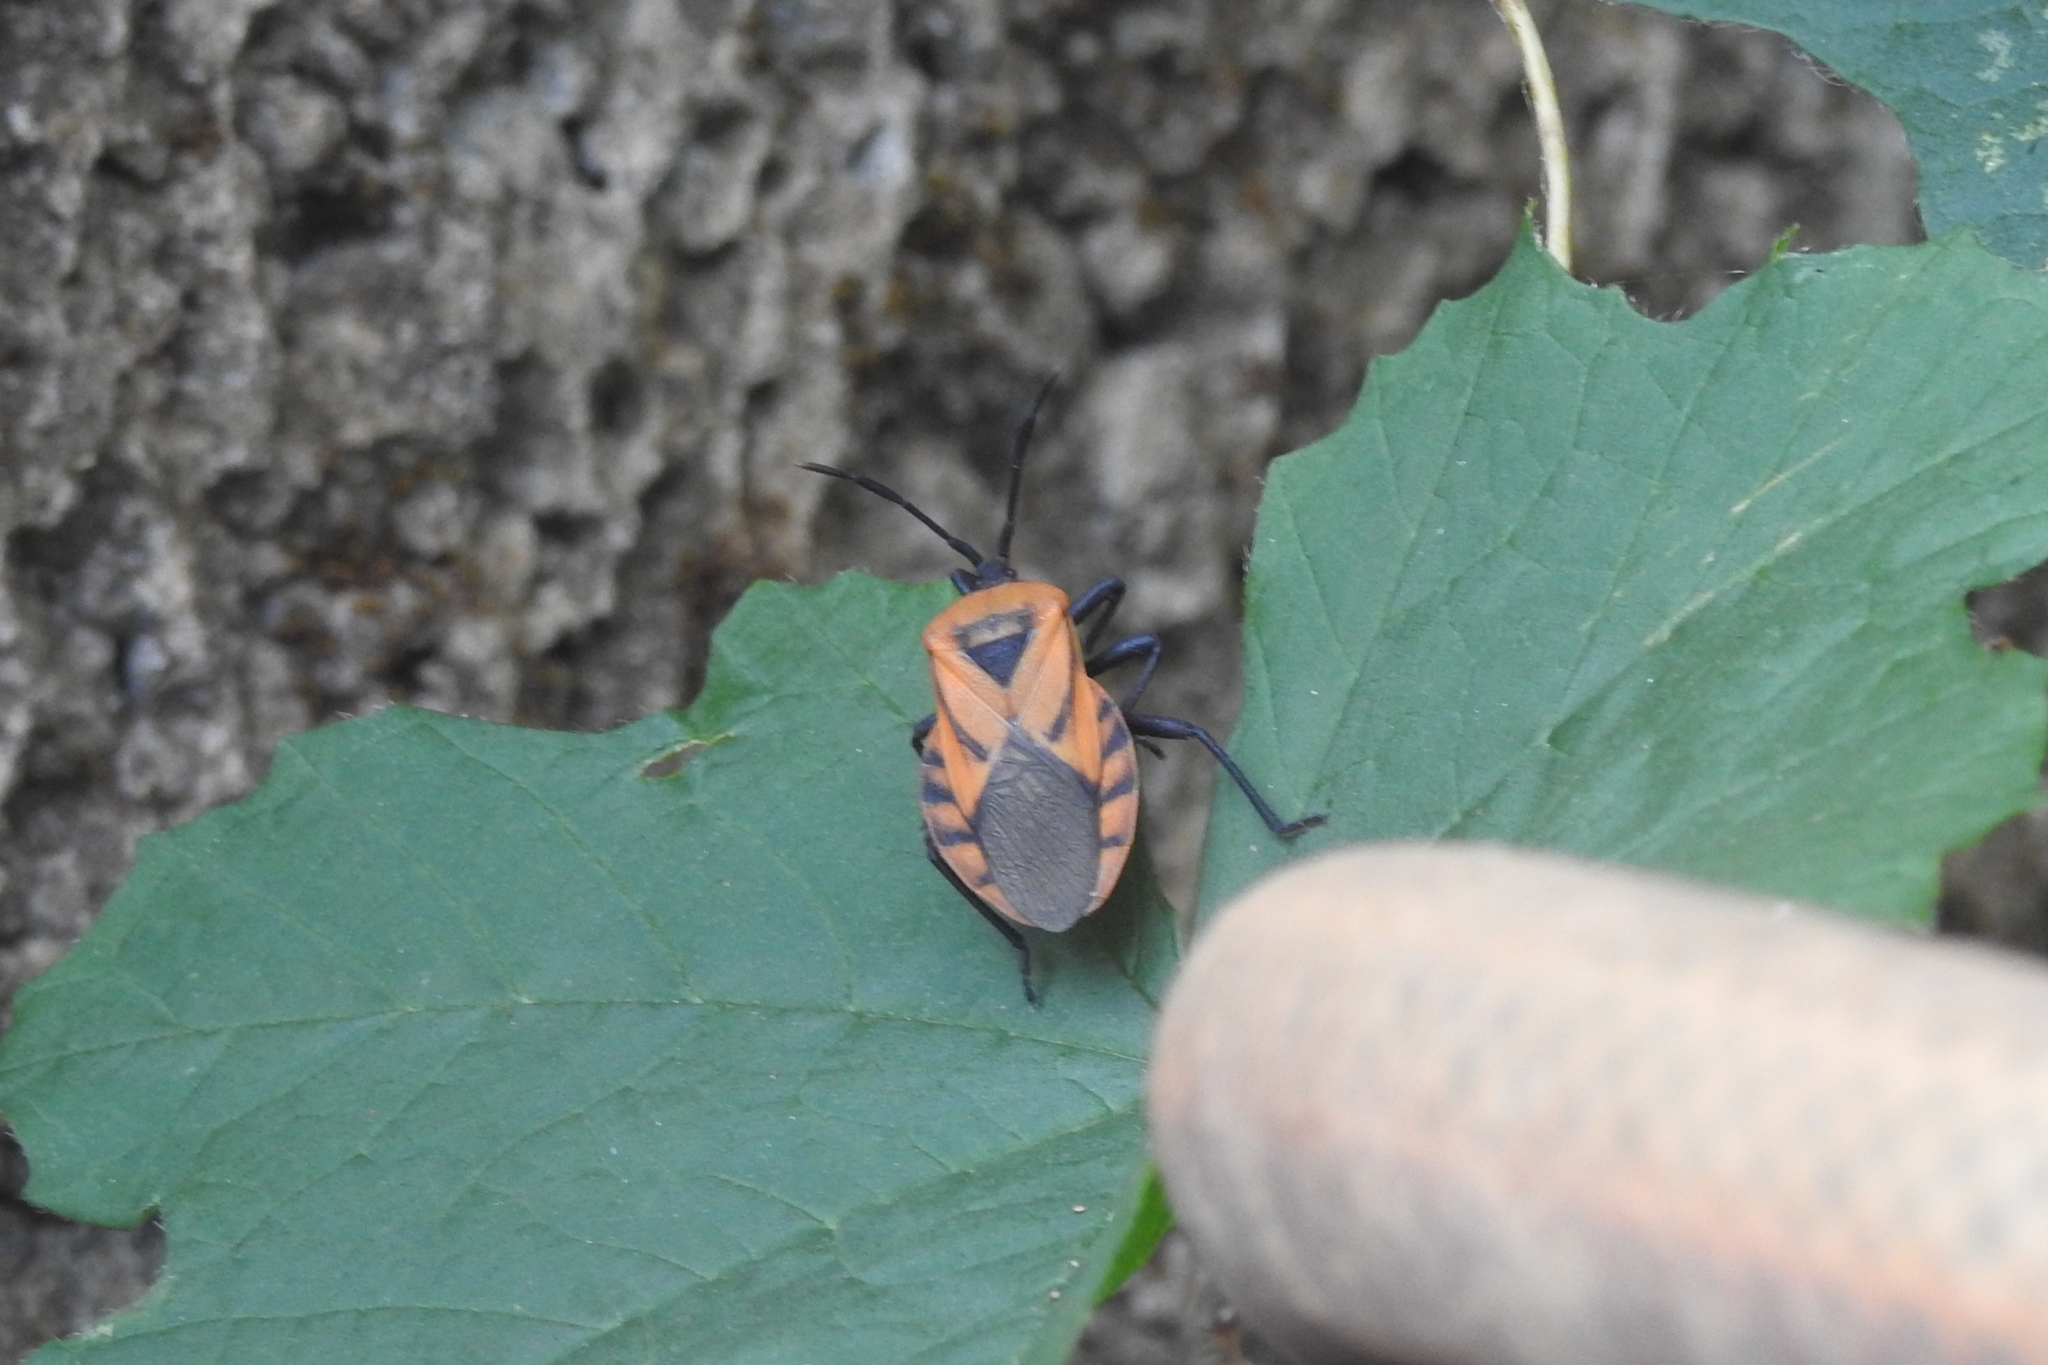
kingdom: Animalia
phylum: Arthropoda
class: Insecta
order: Hemiptera
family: Coreidae
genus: Brachytes
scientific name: Brachytes bicolor
